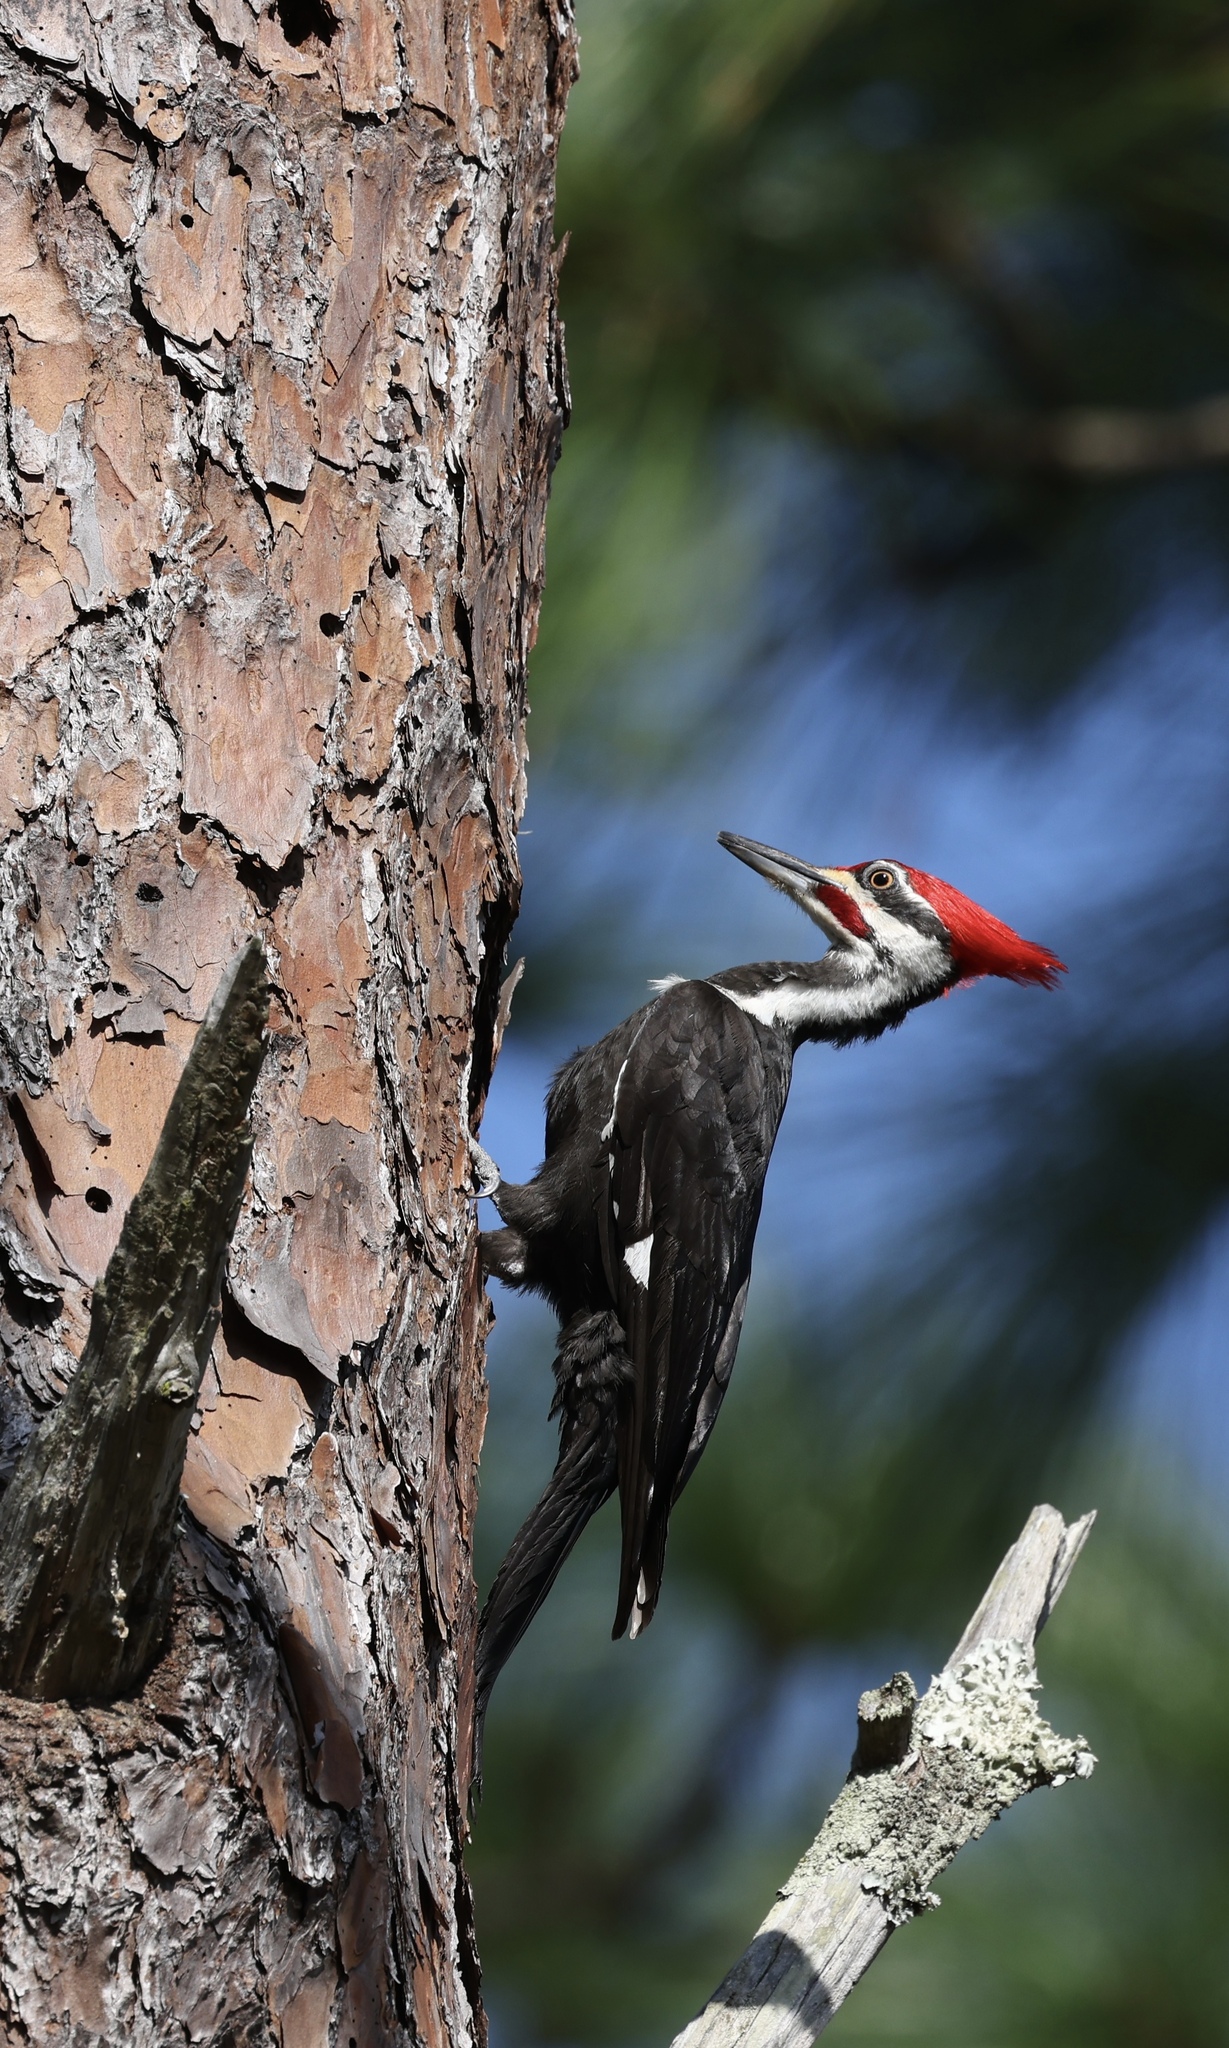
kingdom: Animalia
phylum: Chordata
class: Aves
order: Piciformes
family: Picidae
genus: Dryocopus
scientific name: Dryocopus pileatus
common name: Pileated woodpecker
